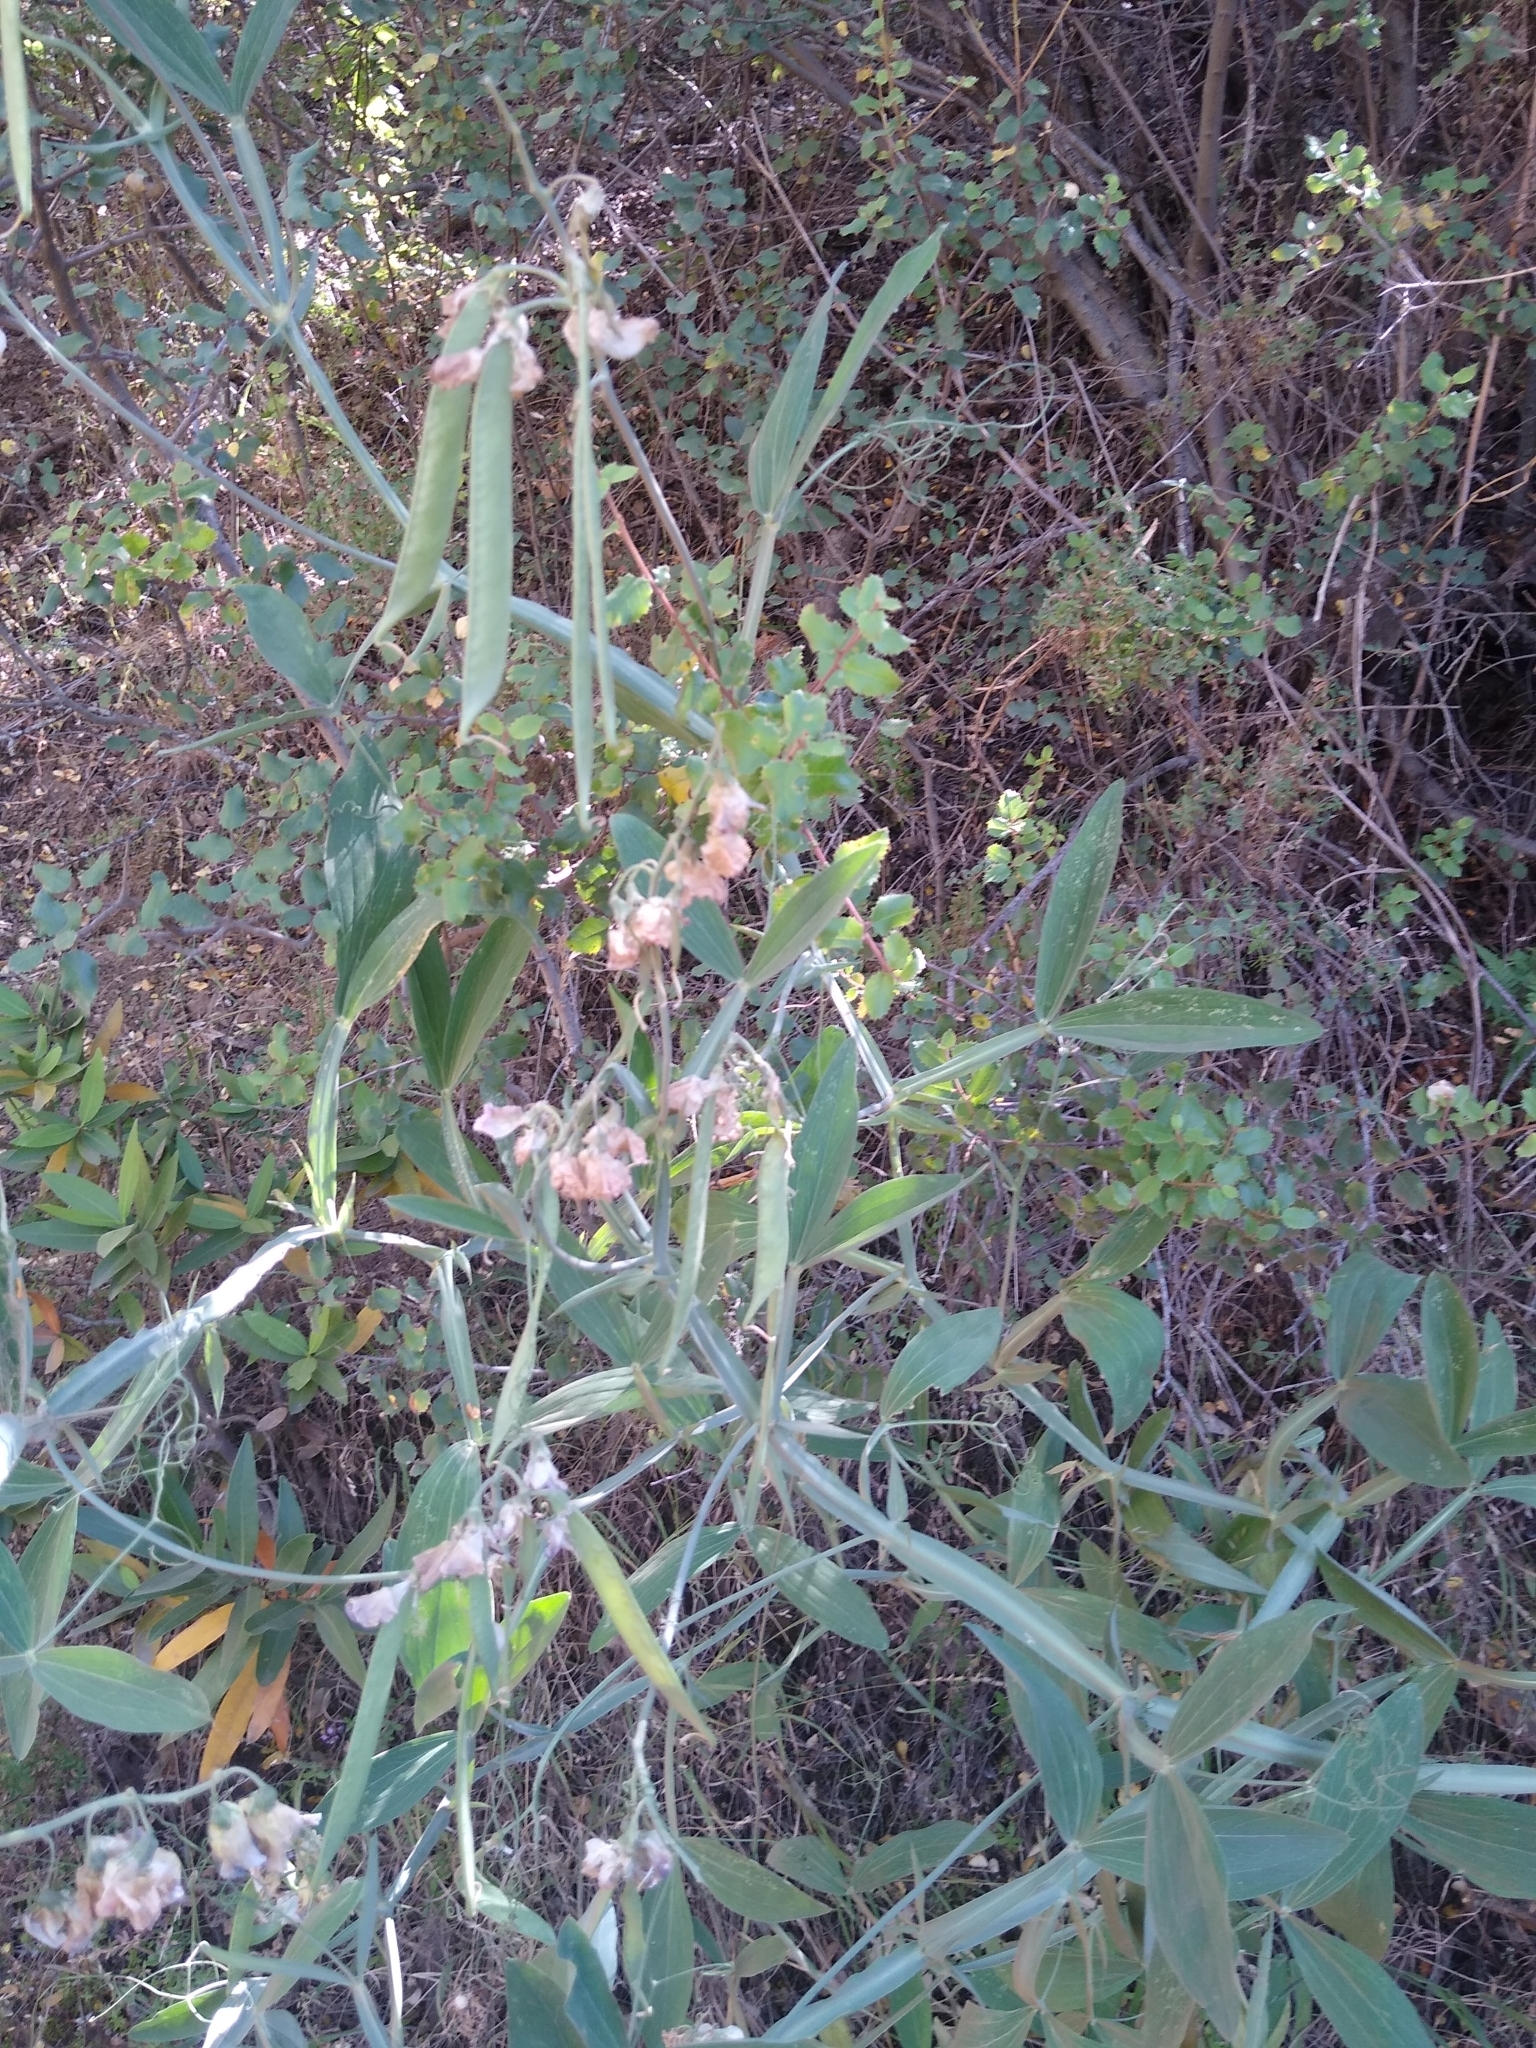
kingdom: Plantae
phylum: Tracheophyta
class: Magnoliopsida
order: Fabales
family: Fabaceae
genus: Lathyrus
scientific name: Lathyrus latifolius
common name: Perennial pea
